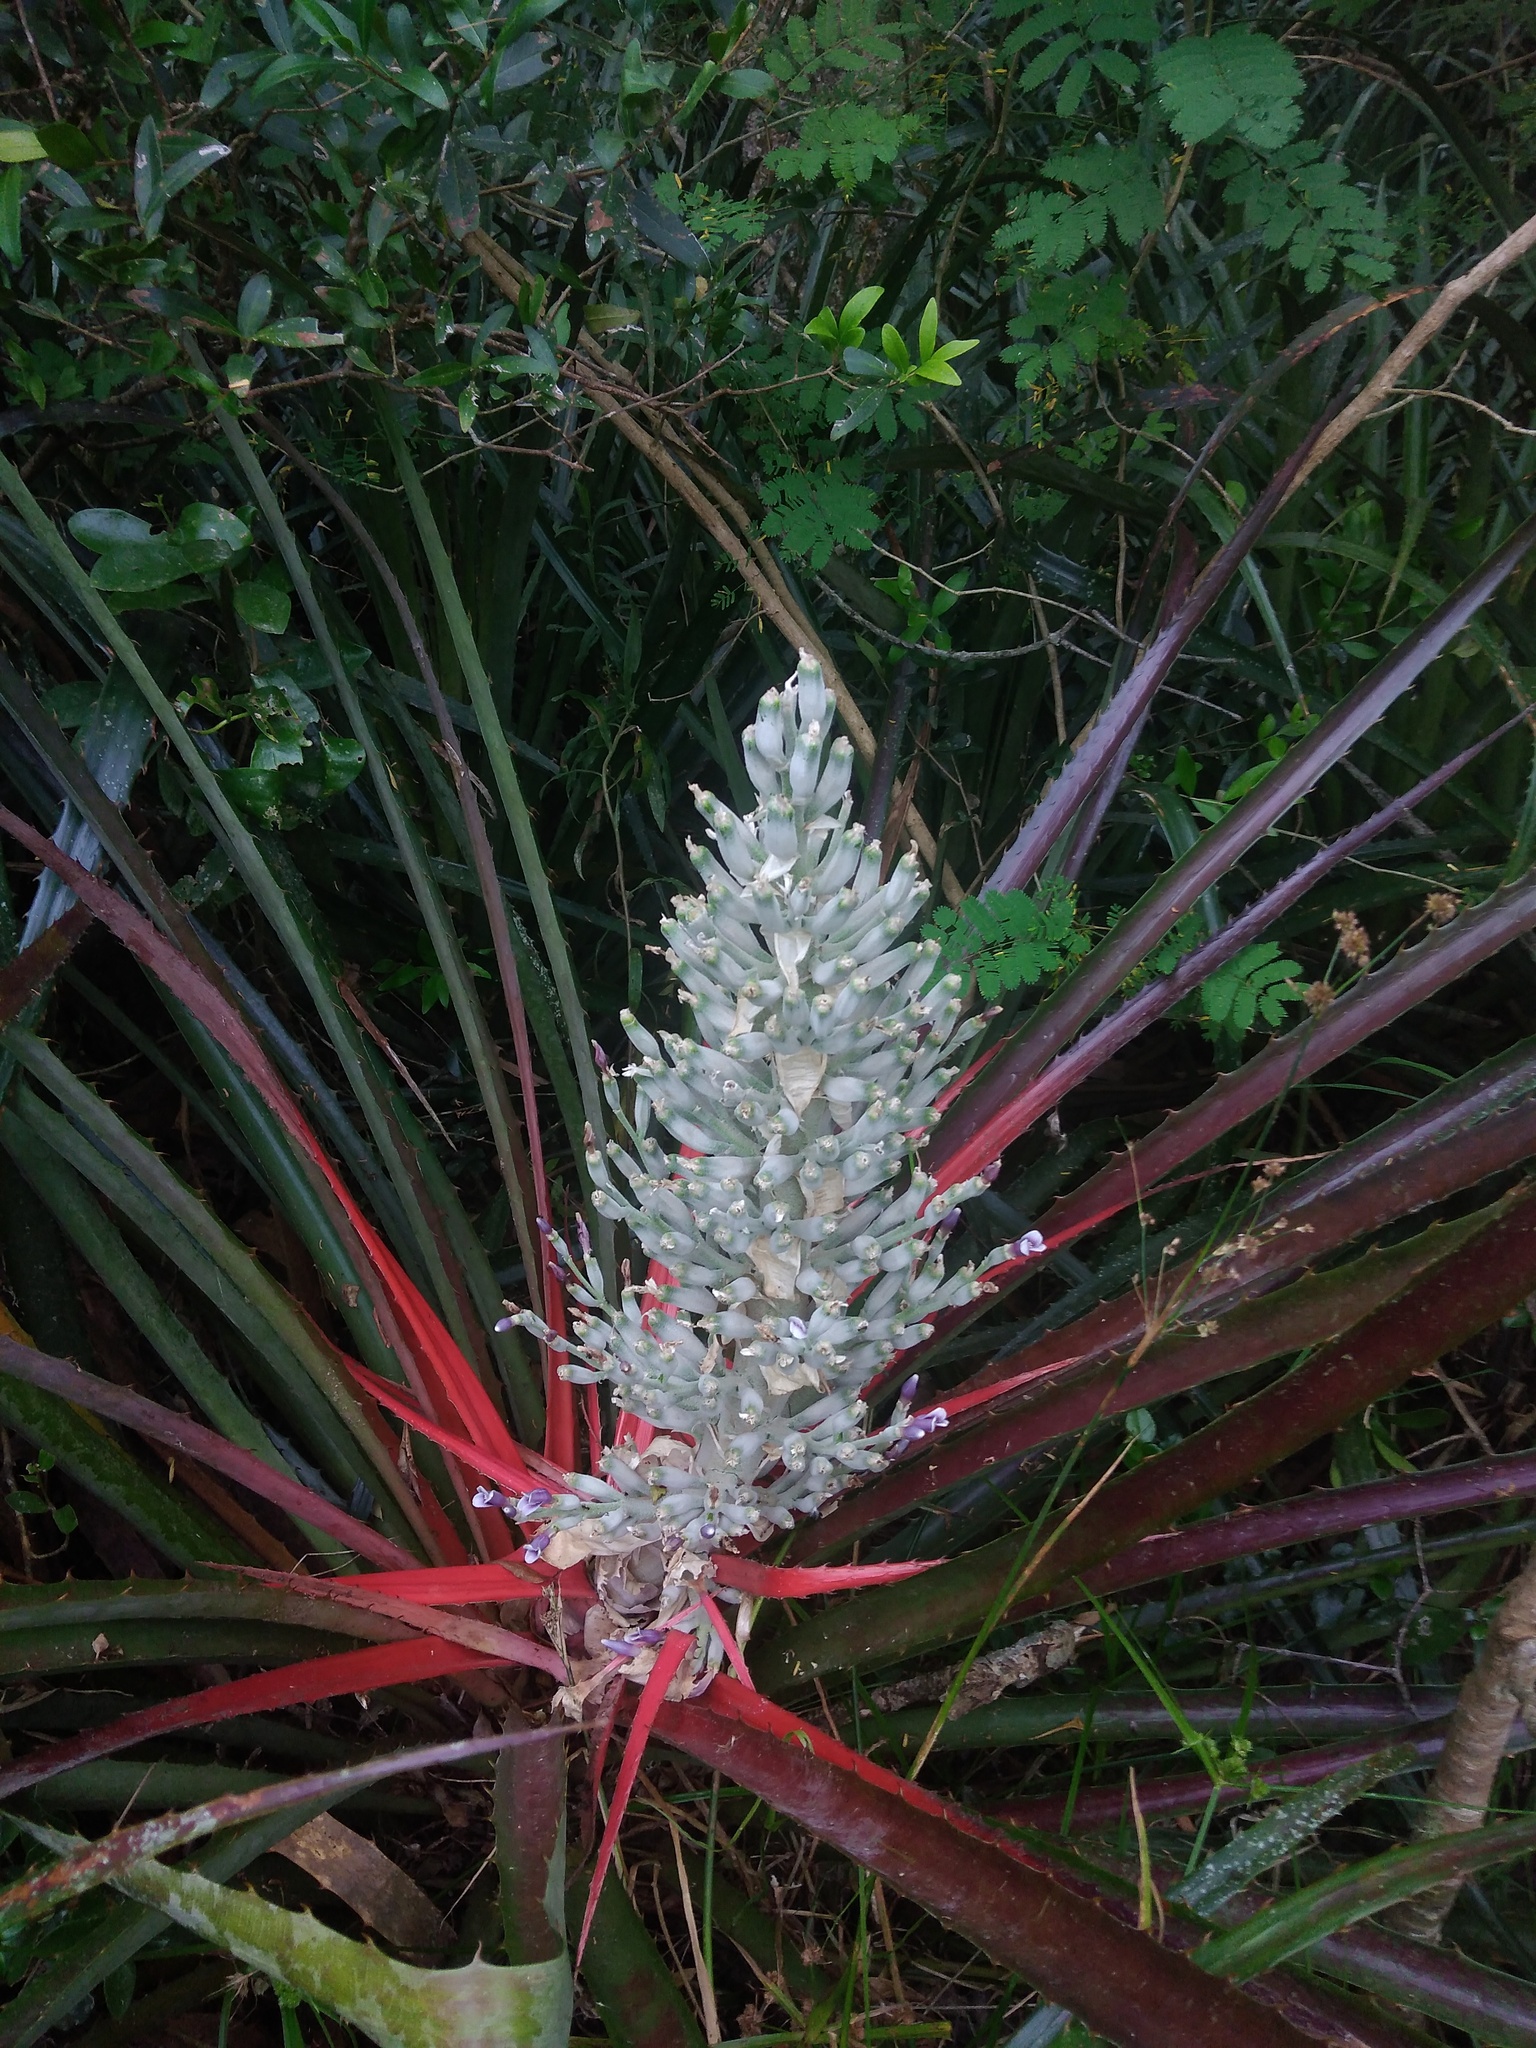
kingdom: Plantae
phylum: Tracheophyta
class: Liliopsida
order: Poales
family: Bromeliaceae
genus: Bromelia
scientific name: Bromelia antiacantha
